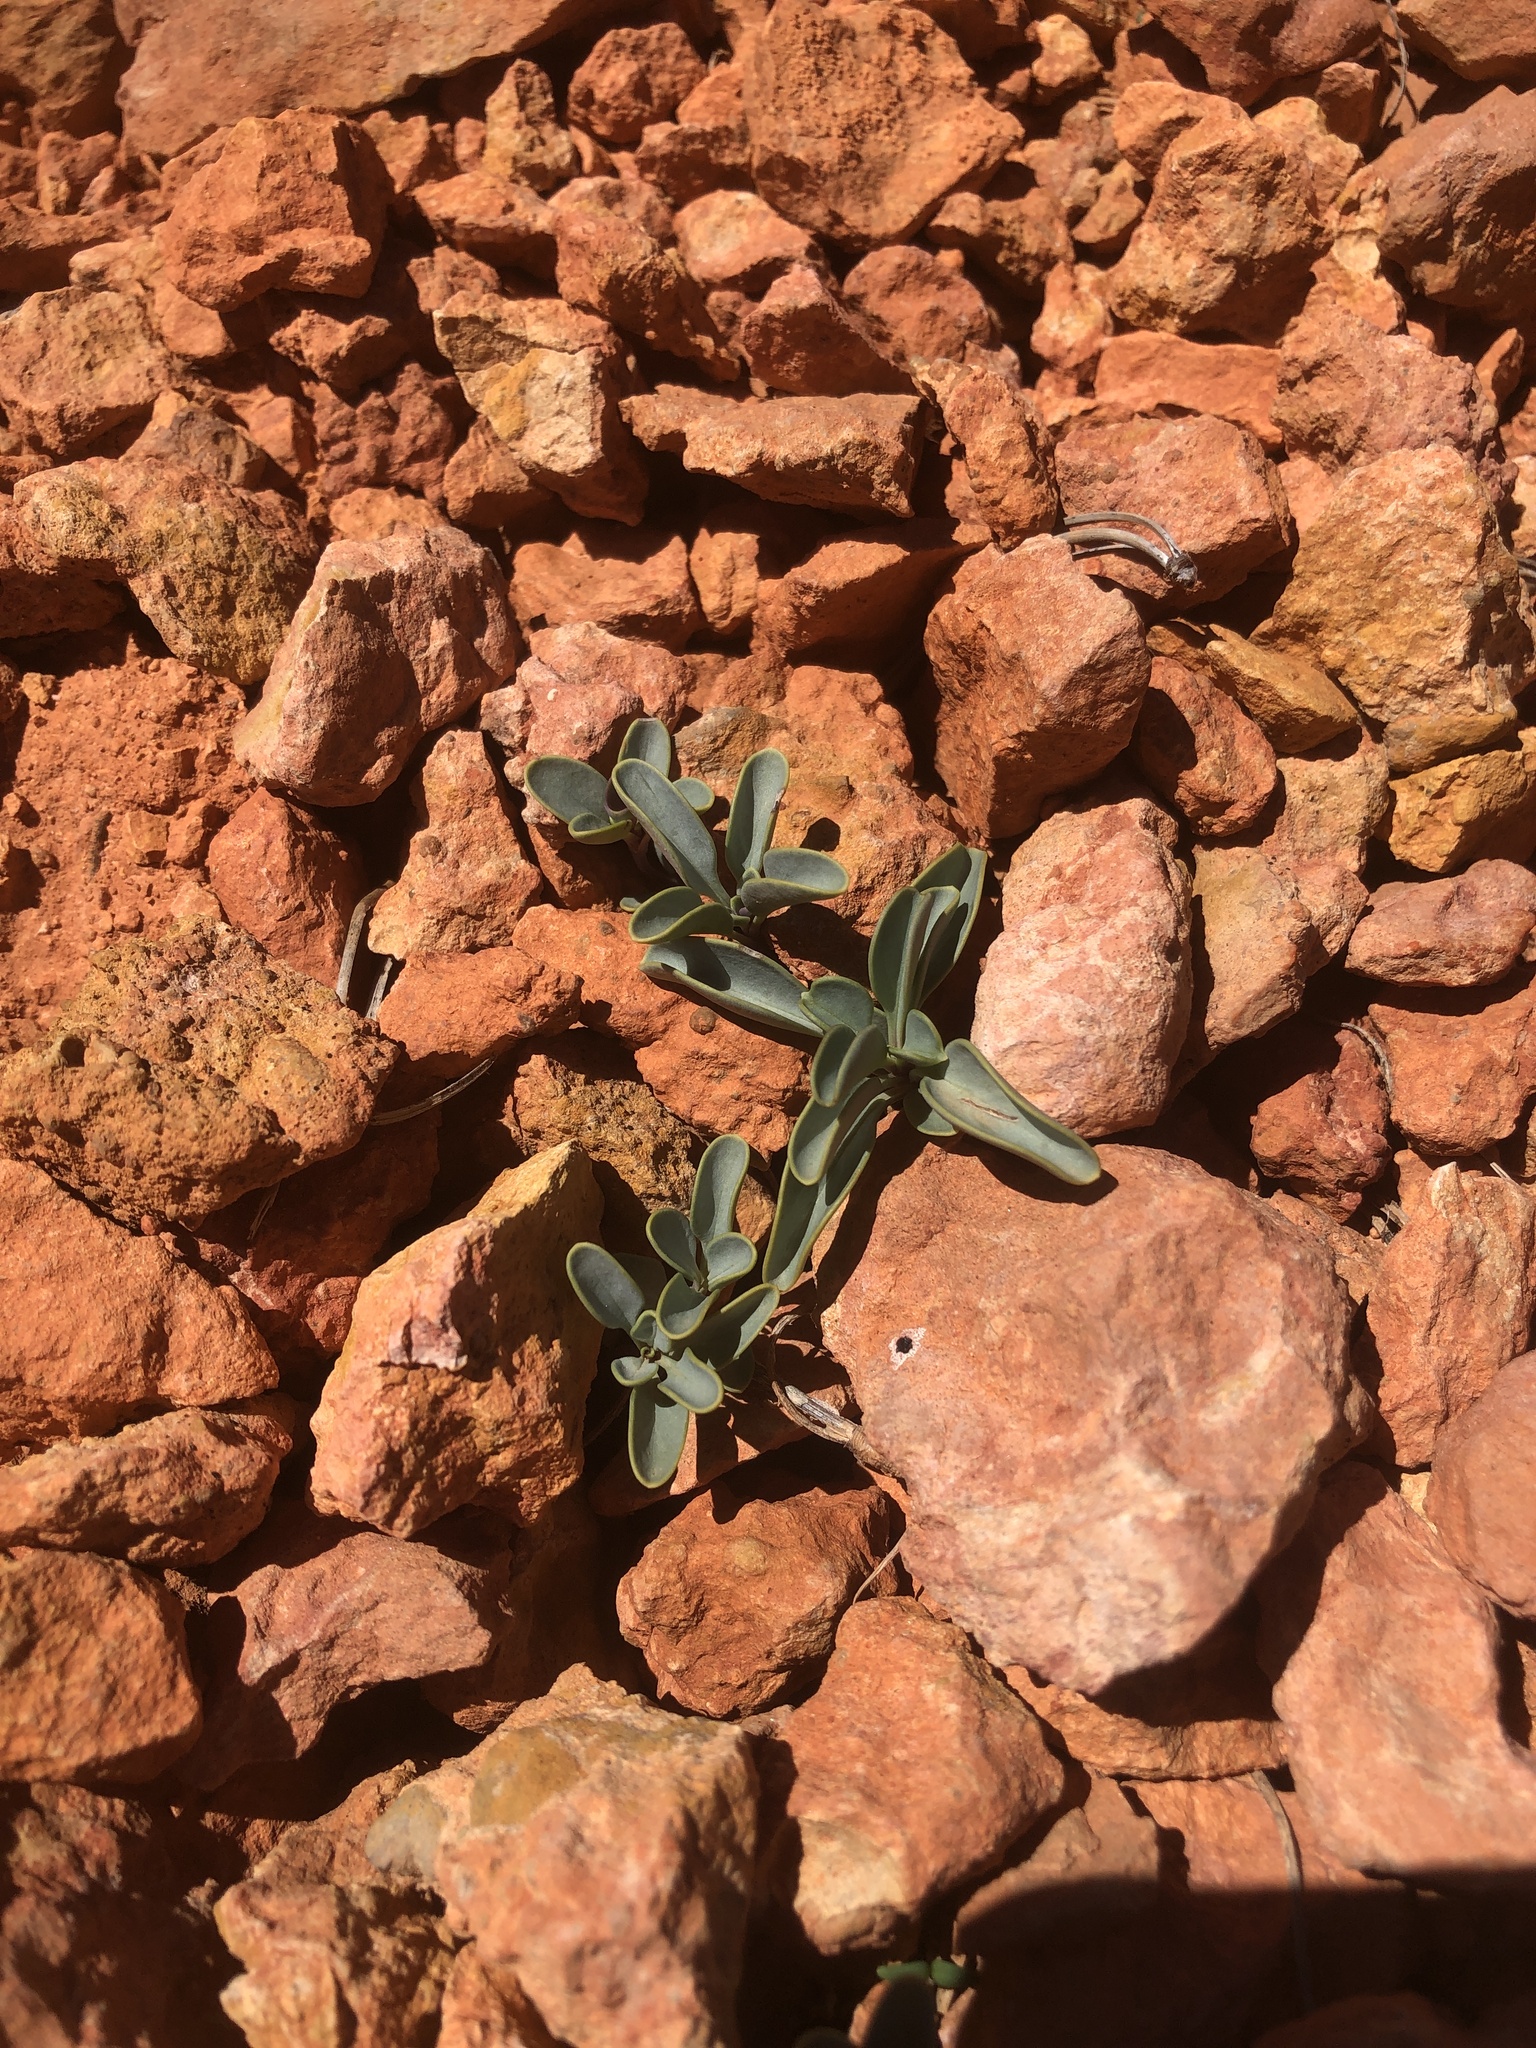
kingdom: Plantae
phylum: Tracheophyta
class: Magnoliopsida
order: Lamiales
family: Plantaginaceae
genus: Penstemon
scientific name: Penstemon bracteatus
